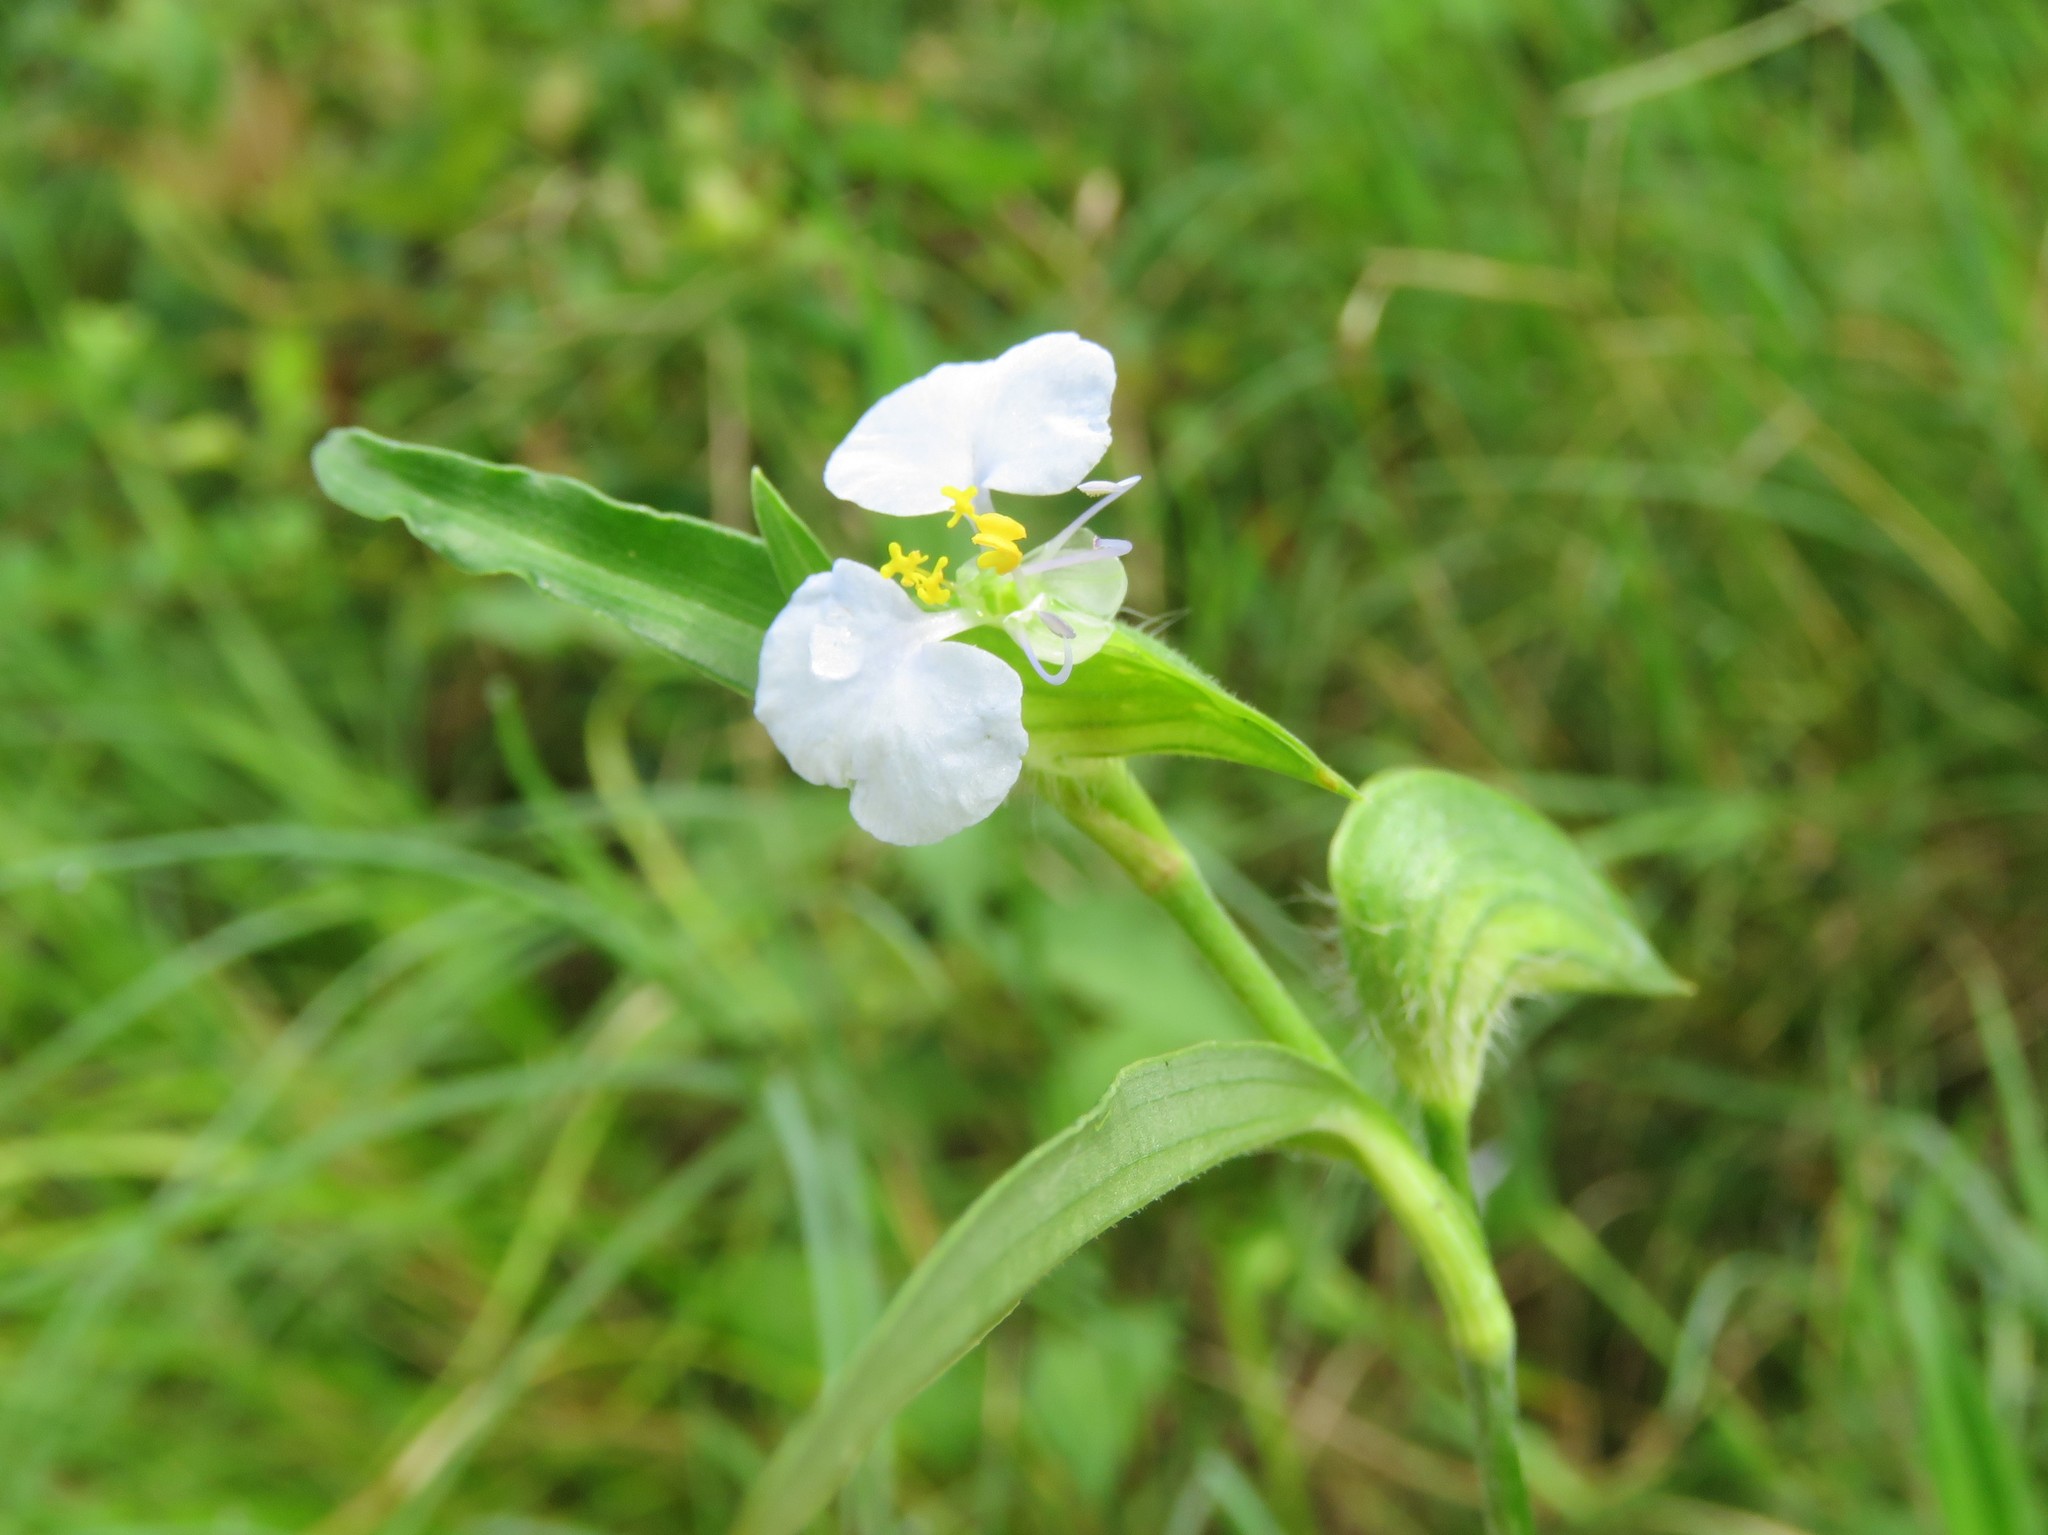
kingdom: Plantae
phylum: Tracheophyta
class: Liliopsida
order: Commelinales
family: Commelinaceae
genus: Commelina
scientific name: Commelina erecta
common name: Blousel blommetjie
